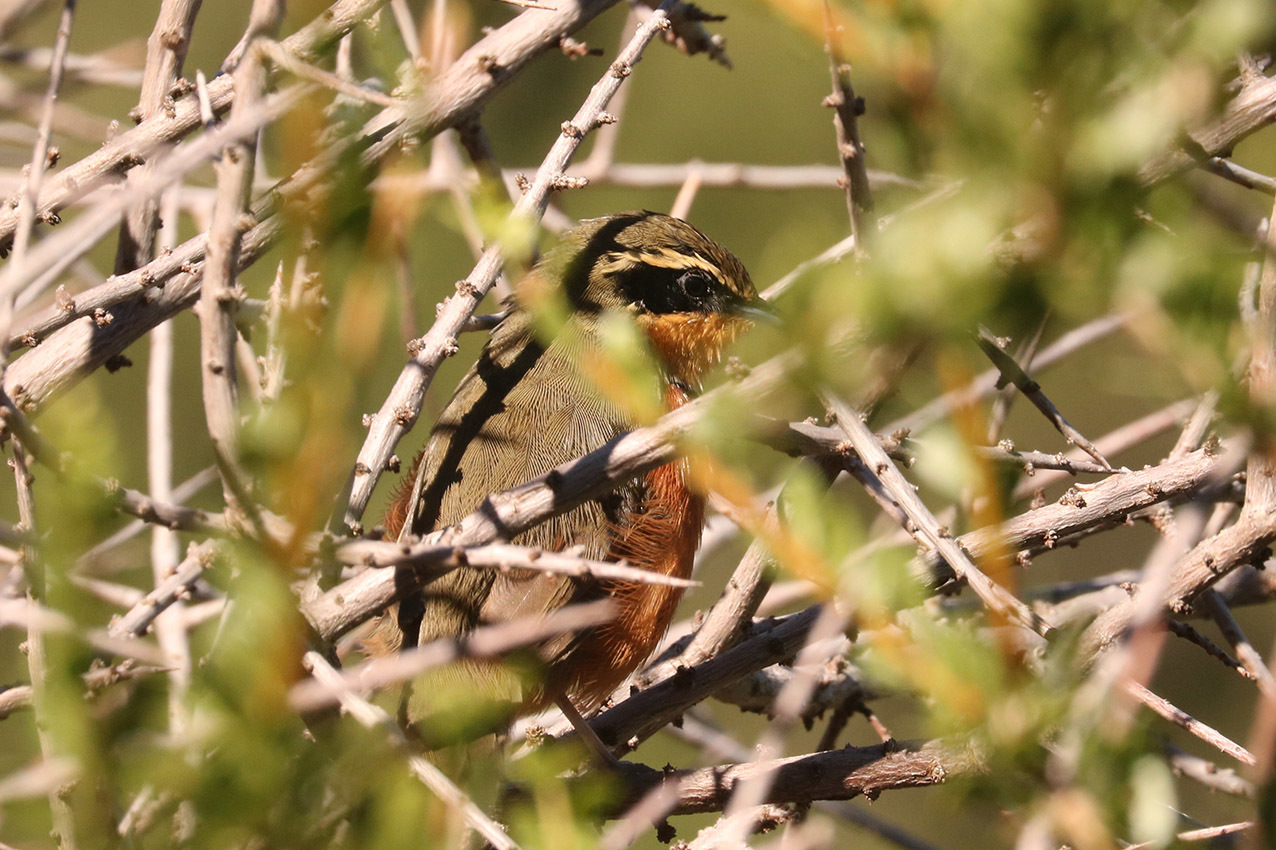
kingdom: Animalia
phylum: Chordata
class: Aves
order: Passeriformes
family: Melanopareiidae
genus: Melanopareia
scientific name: Melanopareia maximiliani
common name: Olive-crowned crescentchest
